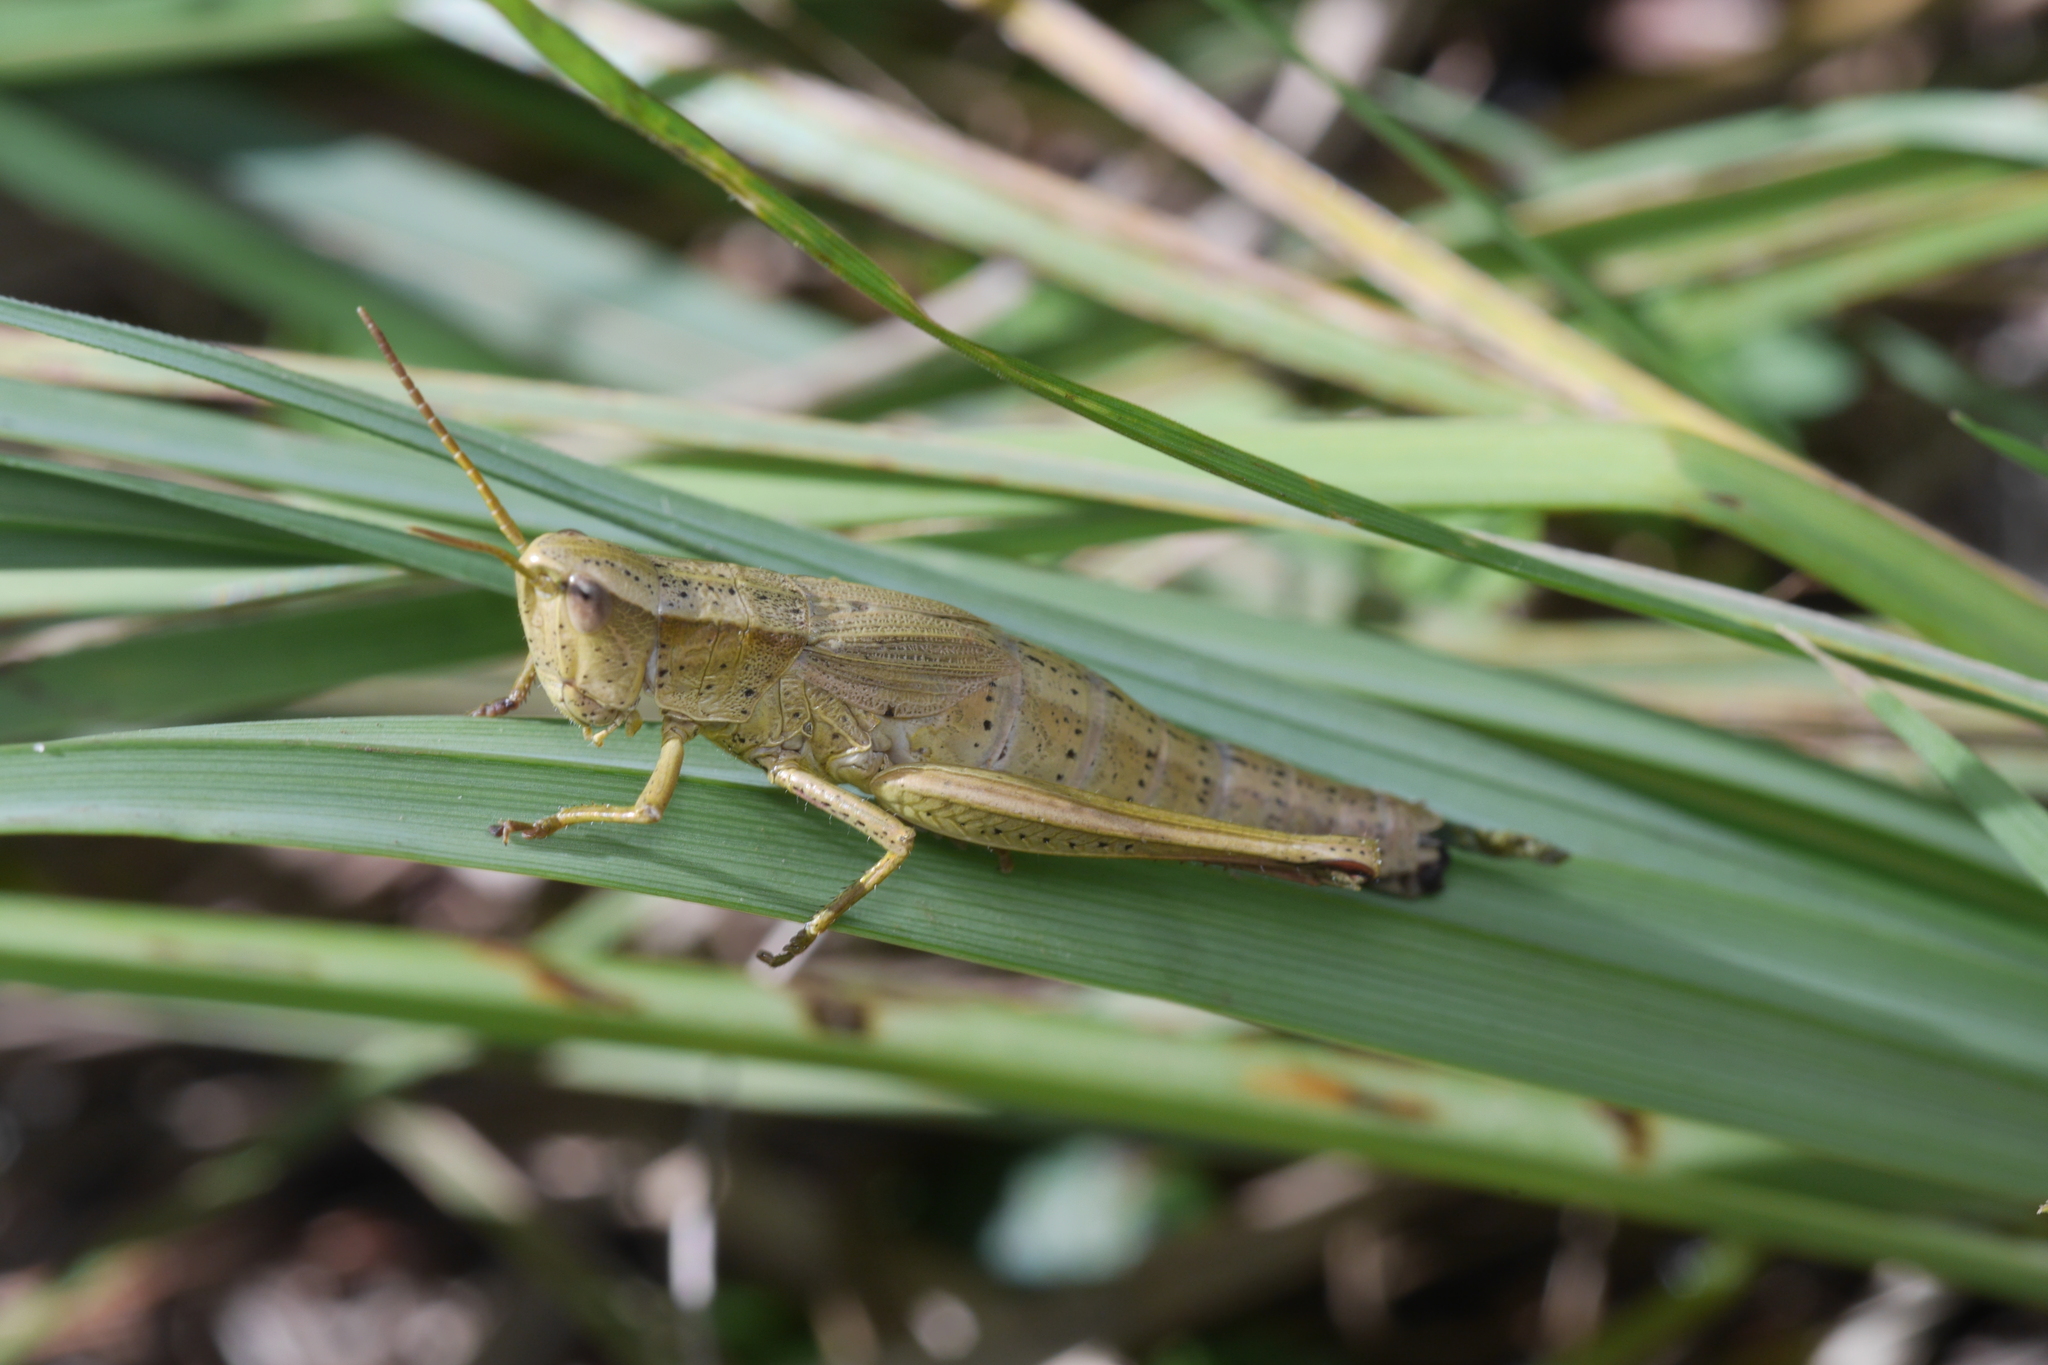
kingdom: Animalia
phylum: Arthropoda
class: Insecta
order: Orthoptera
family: Acrididae
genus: Chrysochraon
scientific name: Chrysochraon dispar
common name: Large gold grasshopper
